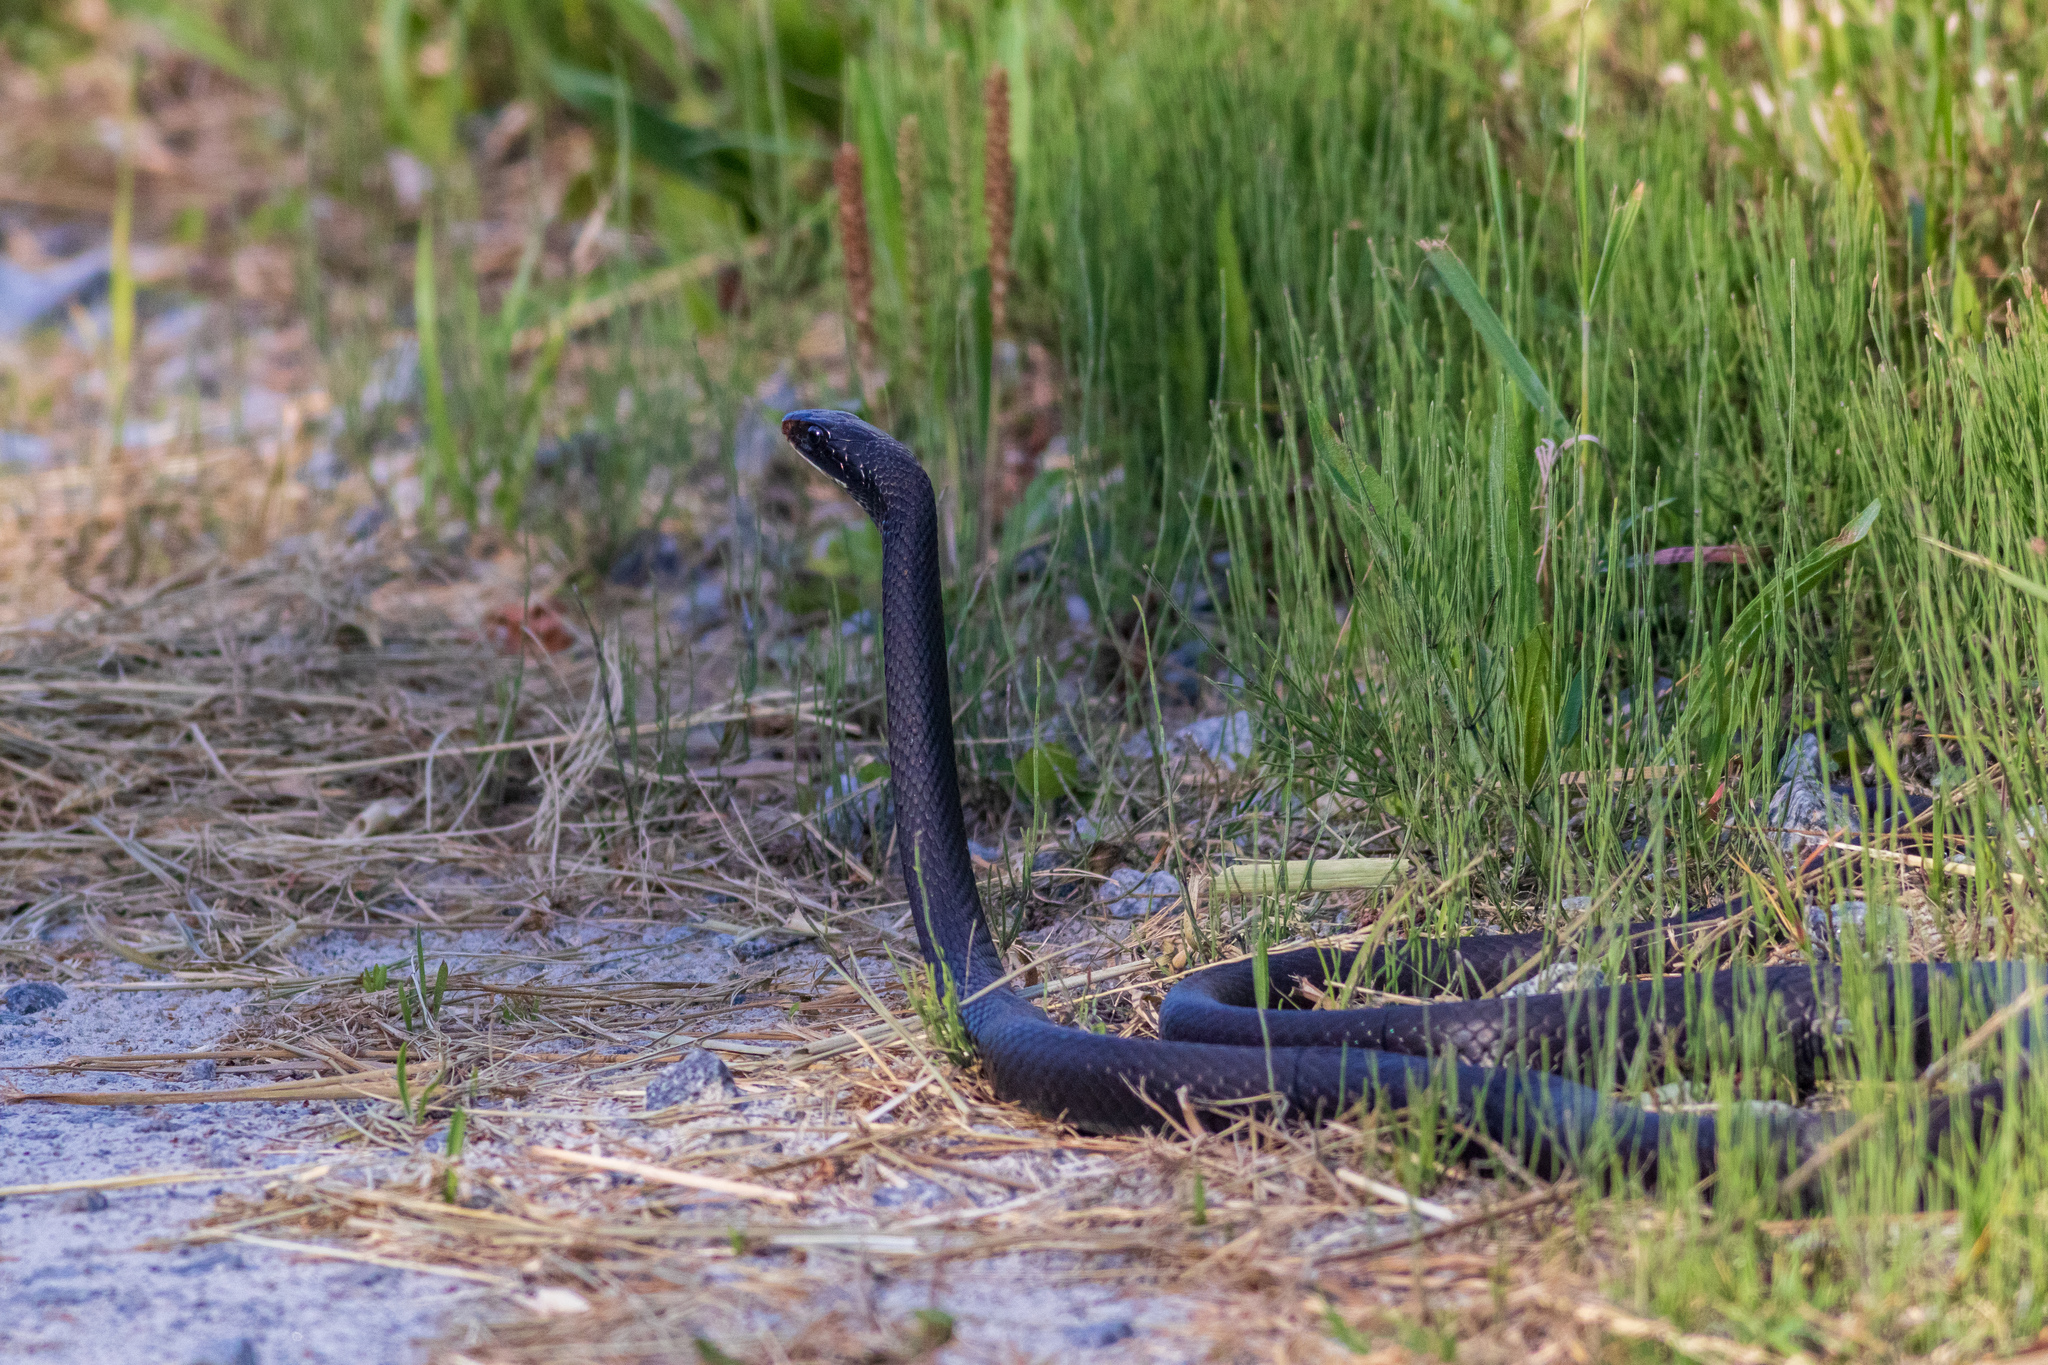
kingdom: Animalia
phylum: Chordata
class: Squamata
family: Colubridae
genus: Coluber
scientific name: Coluber constrictor
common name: Eastern racer
